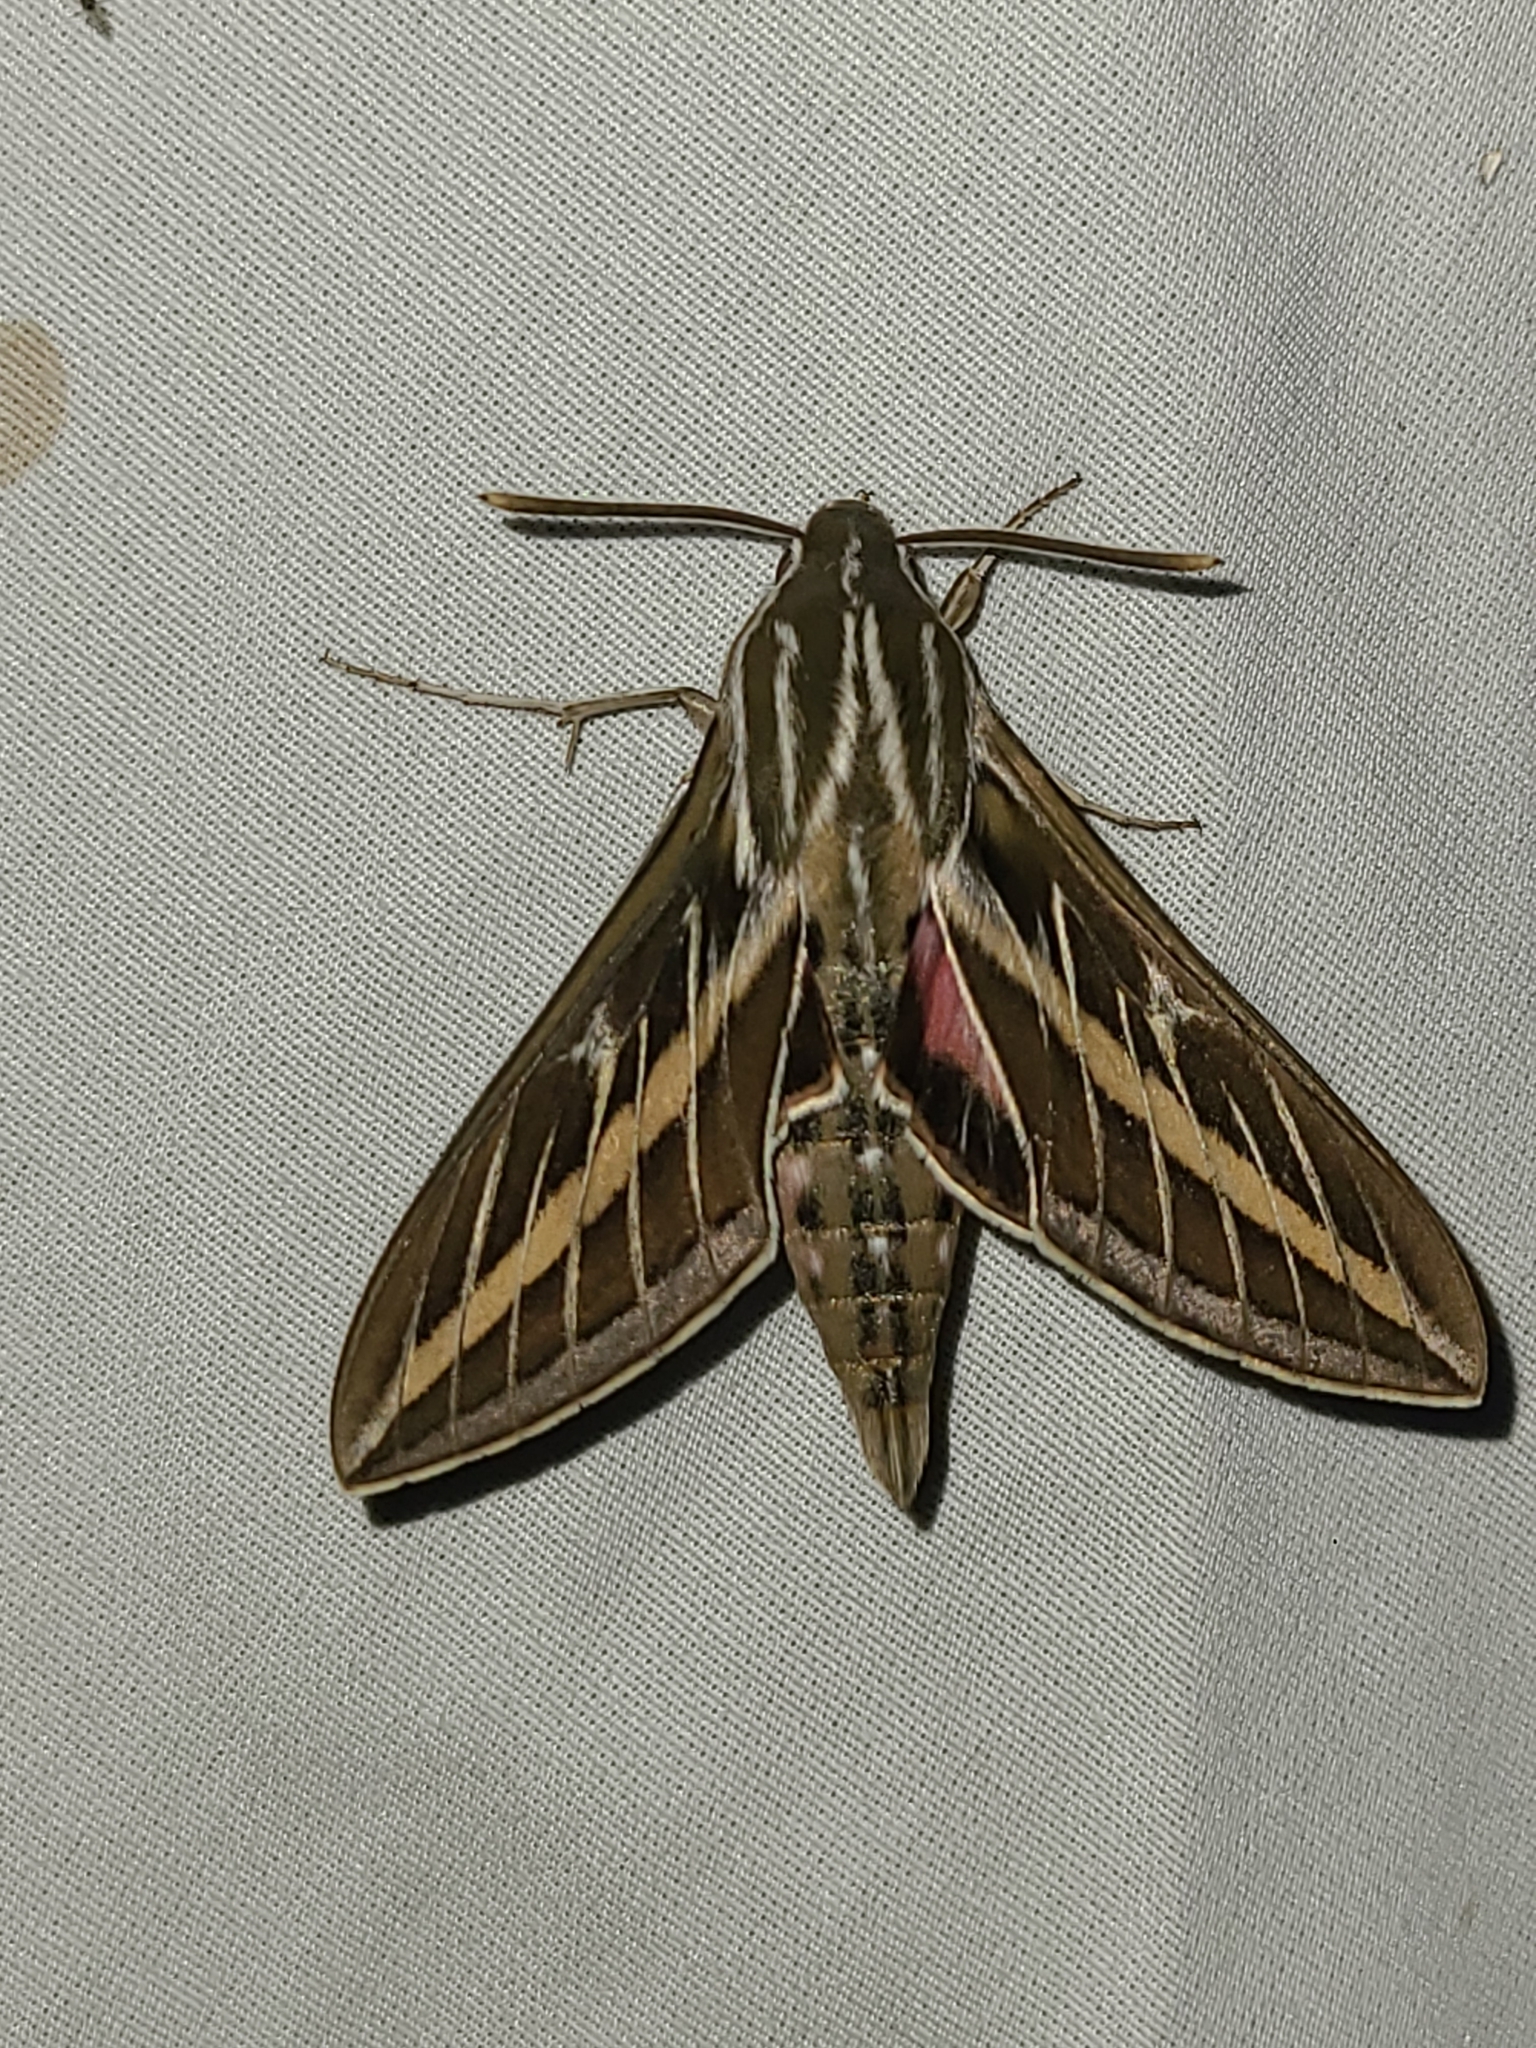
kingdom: Animalia
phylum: Arthropoda
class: Insecta
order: Lepidoptera
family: Sphingidae
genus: Hyles
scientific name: Hyles lineata
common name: White-lined sphinx
